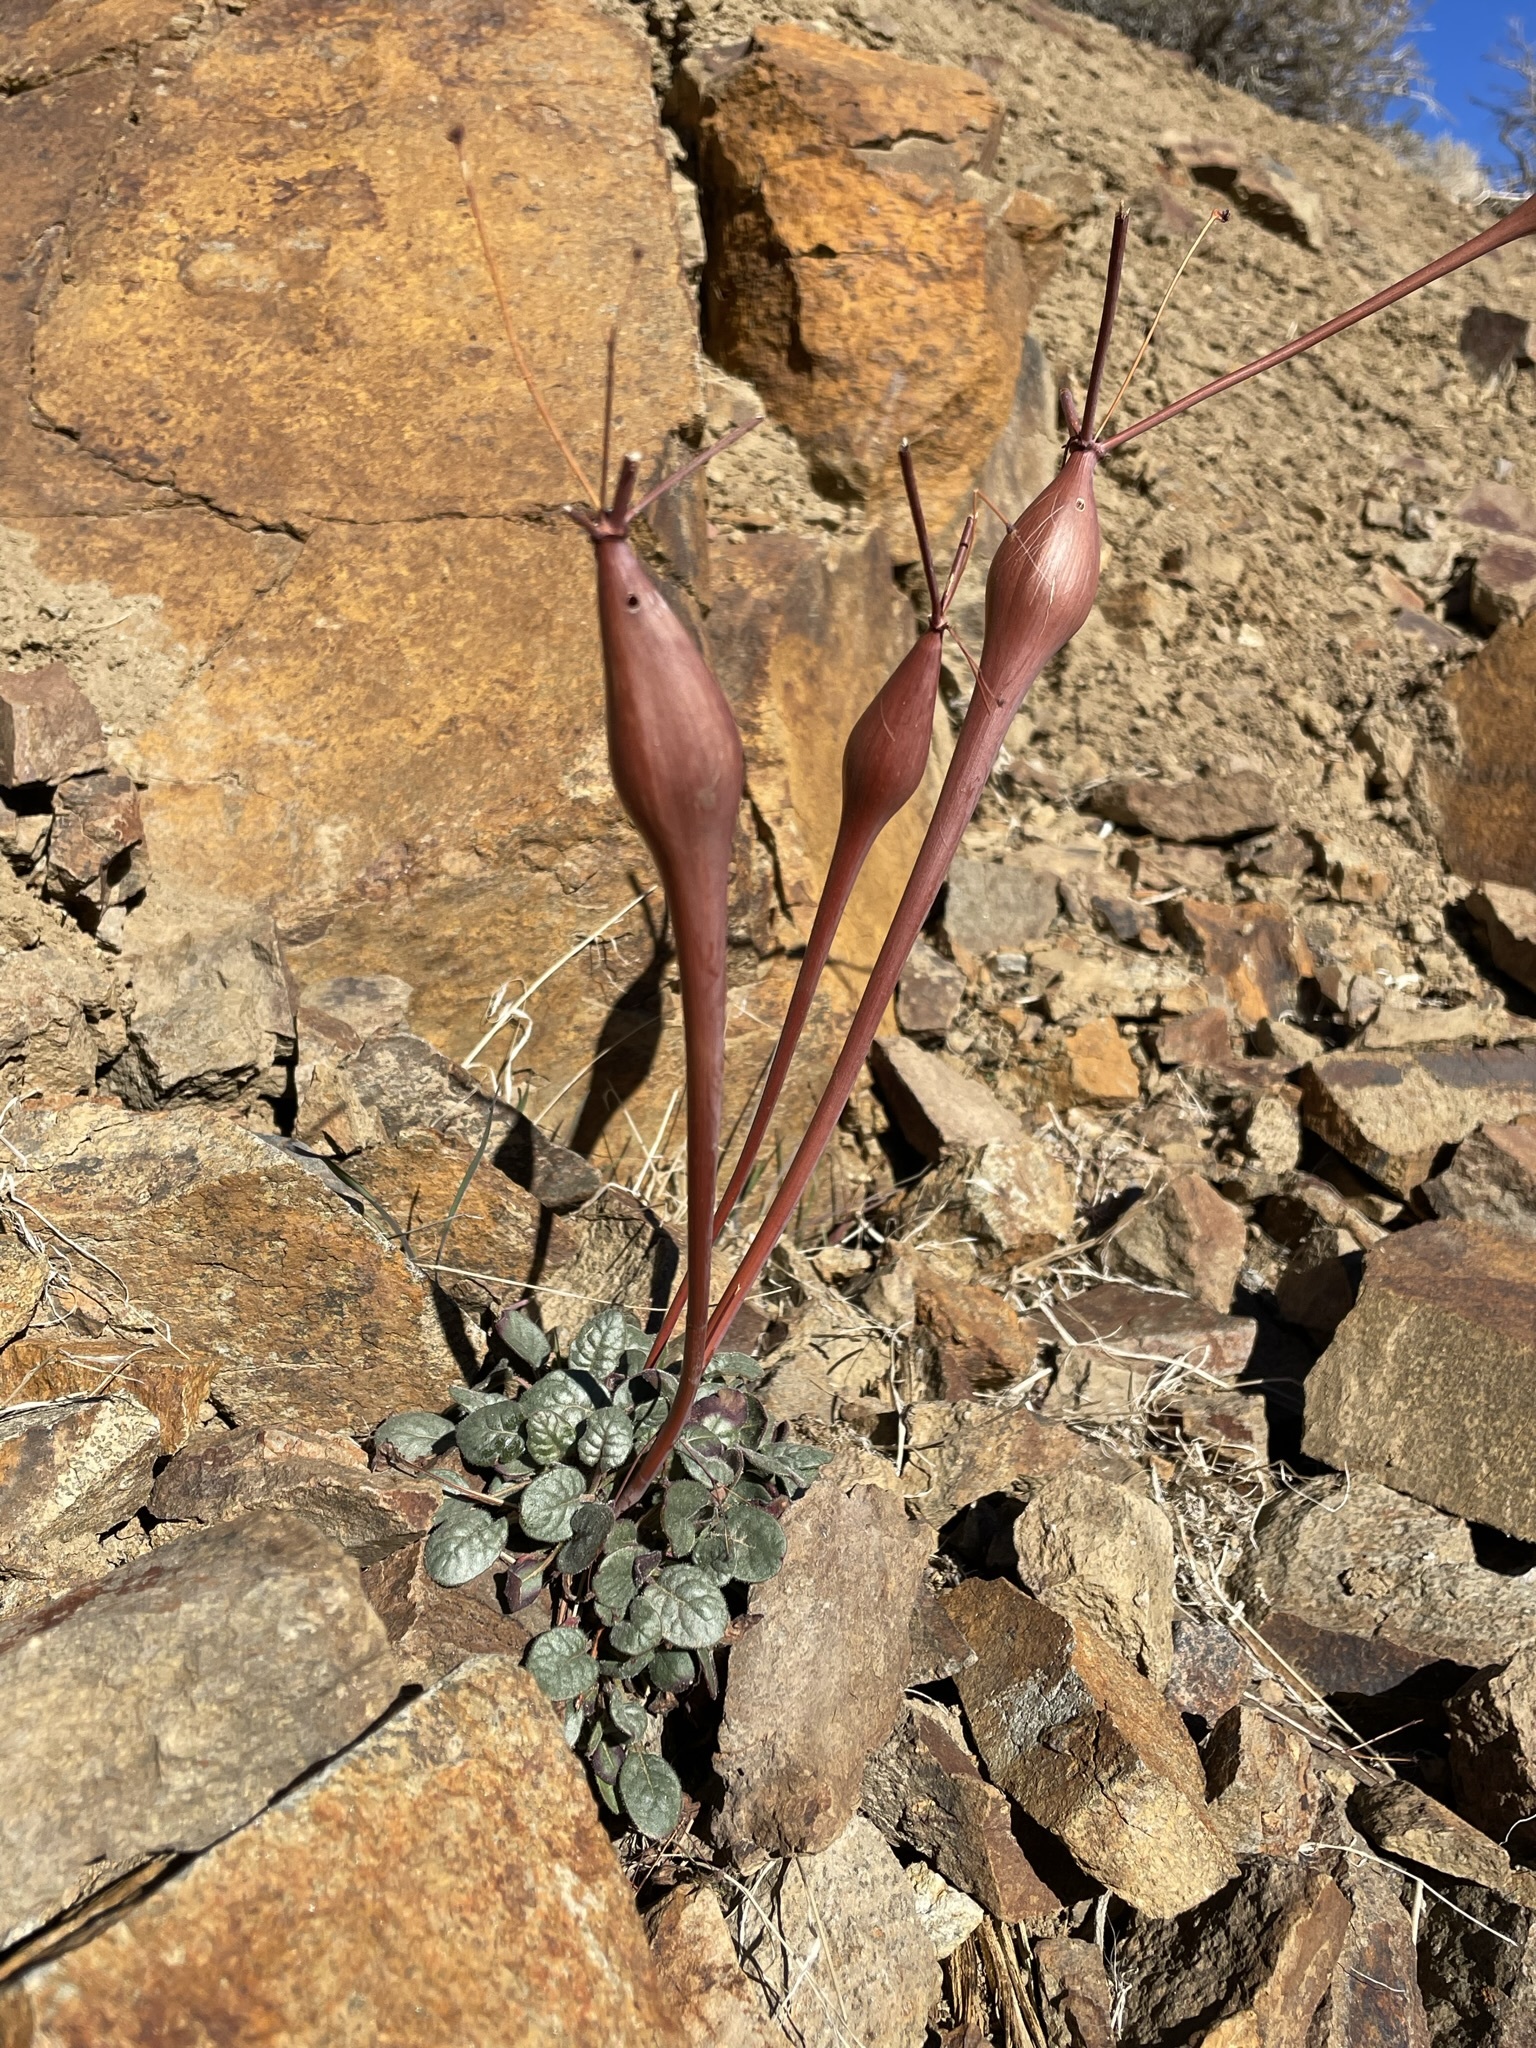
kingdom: Plantae
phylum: Tracheophyta
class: Magnoliopsida
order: Caryophyllales
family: Polygonaceae
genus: Eriogonum
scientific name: Eriogonum inflatum
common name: Desert trumpet
